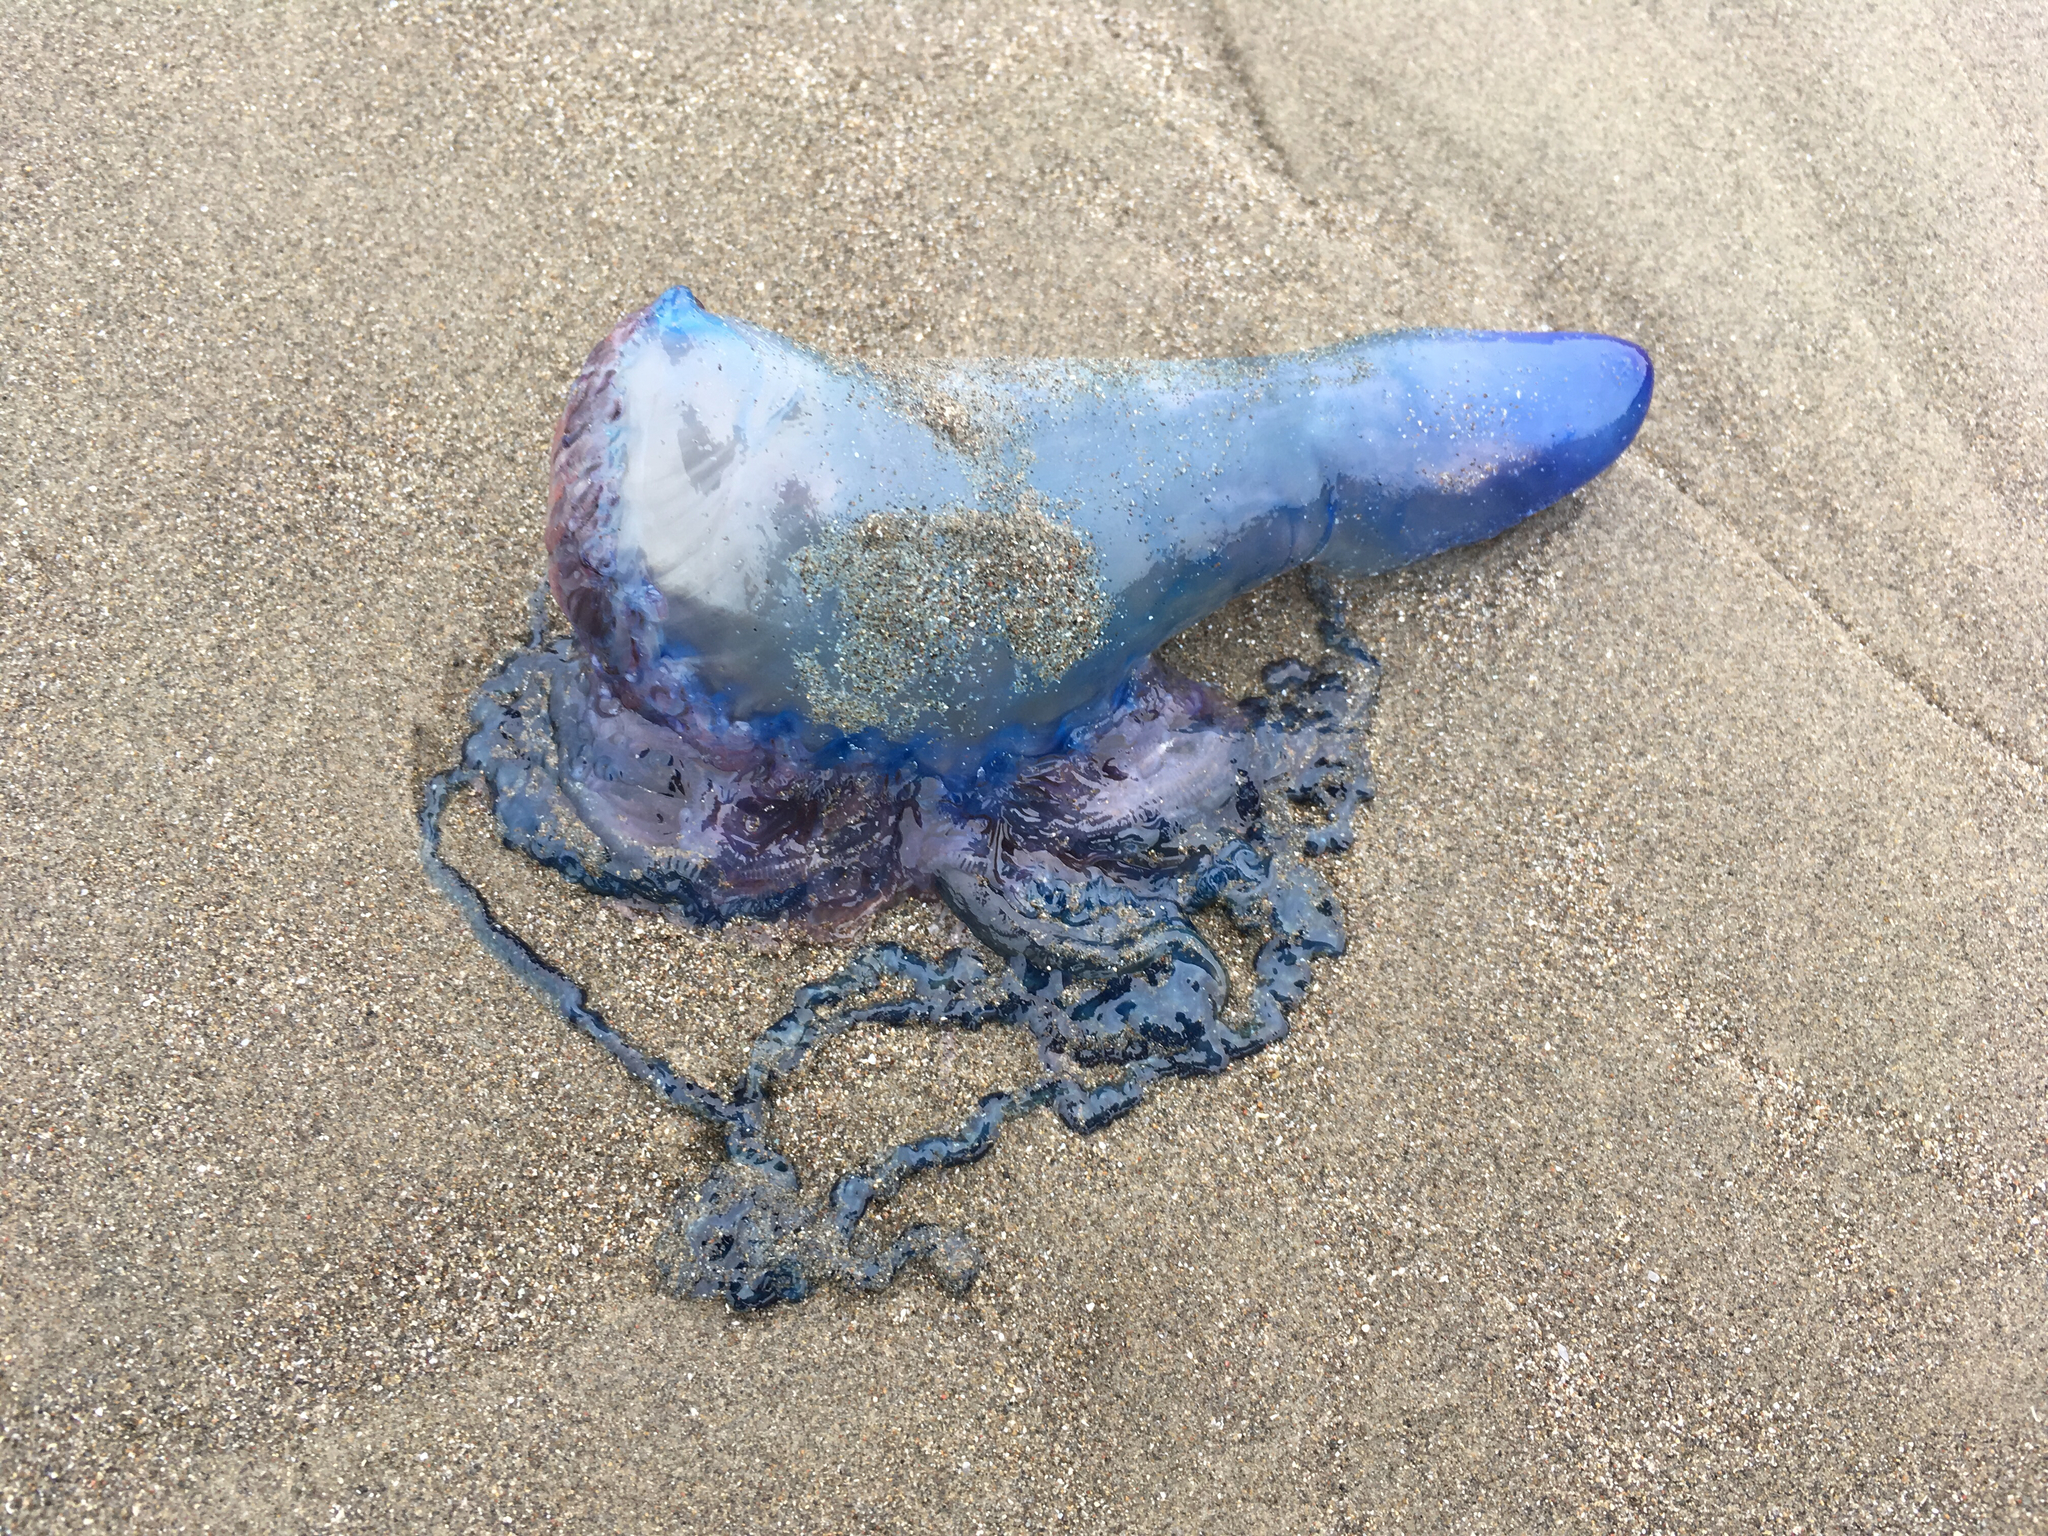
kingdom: Animalia
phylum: Cnidaria
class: Hydrozoa
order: Siphonophorae
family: Physaliidae
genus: Physalia
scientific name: Physalia physalis
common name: Portuguese man-of-war
